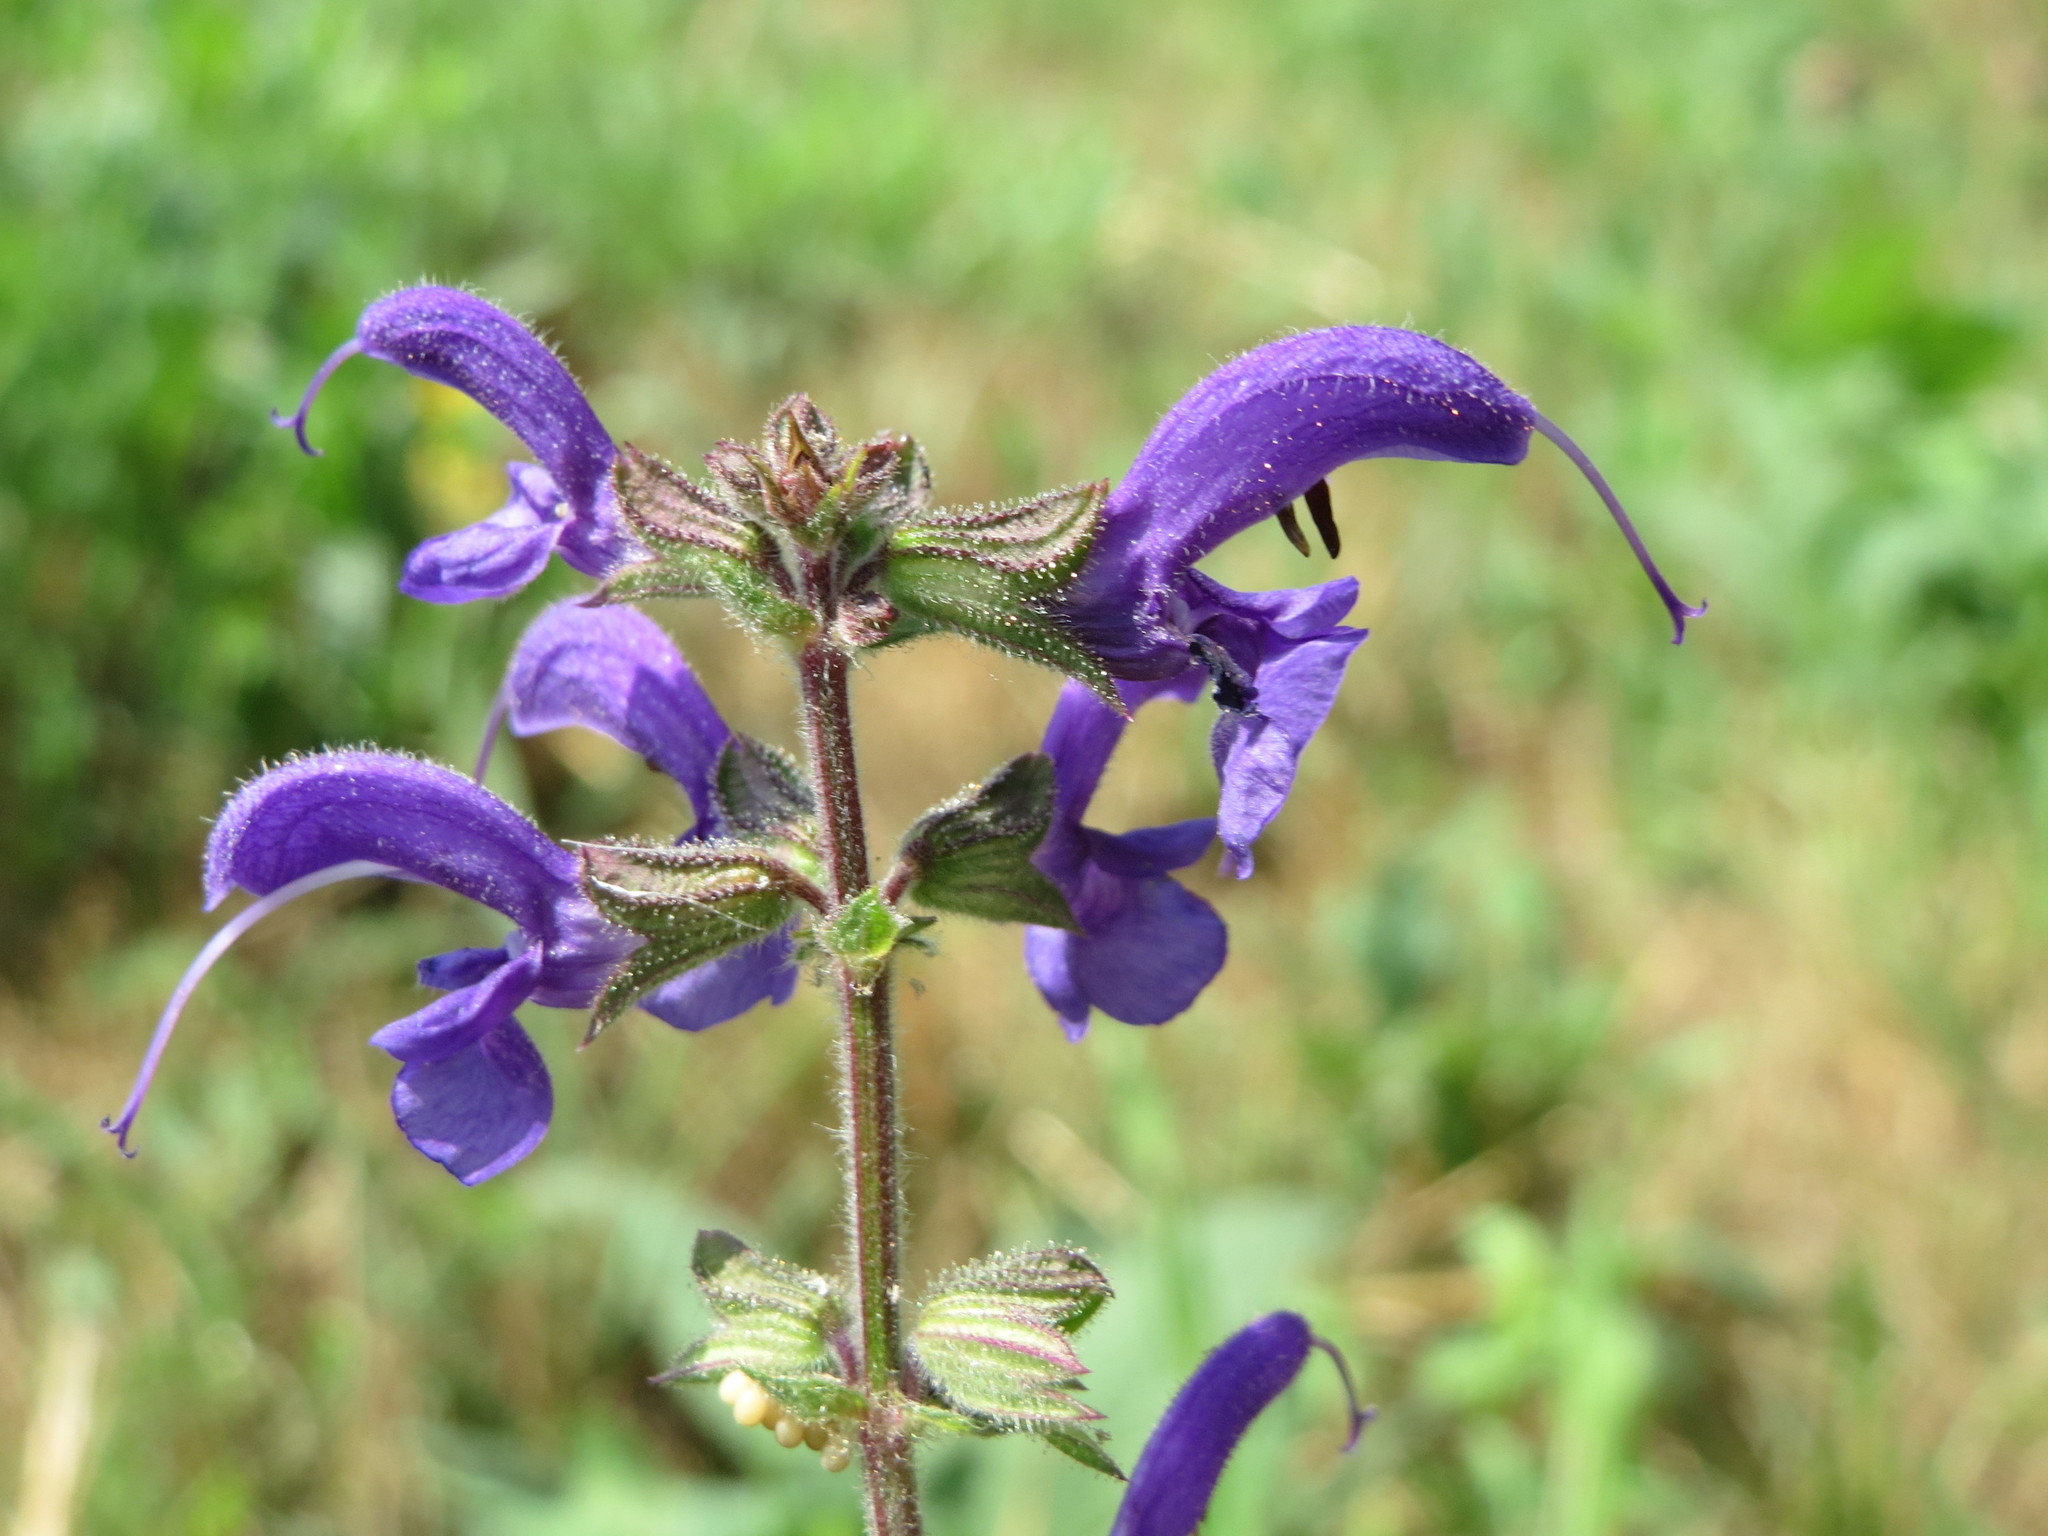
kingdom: Plantae
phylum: Tracheophyta
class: Magnoliopsida
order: Lamiales
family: Lamiaceae
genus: Salvia
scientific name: Salvia pratensis
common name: Meadow sage
